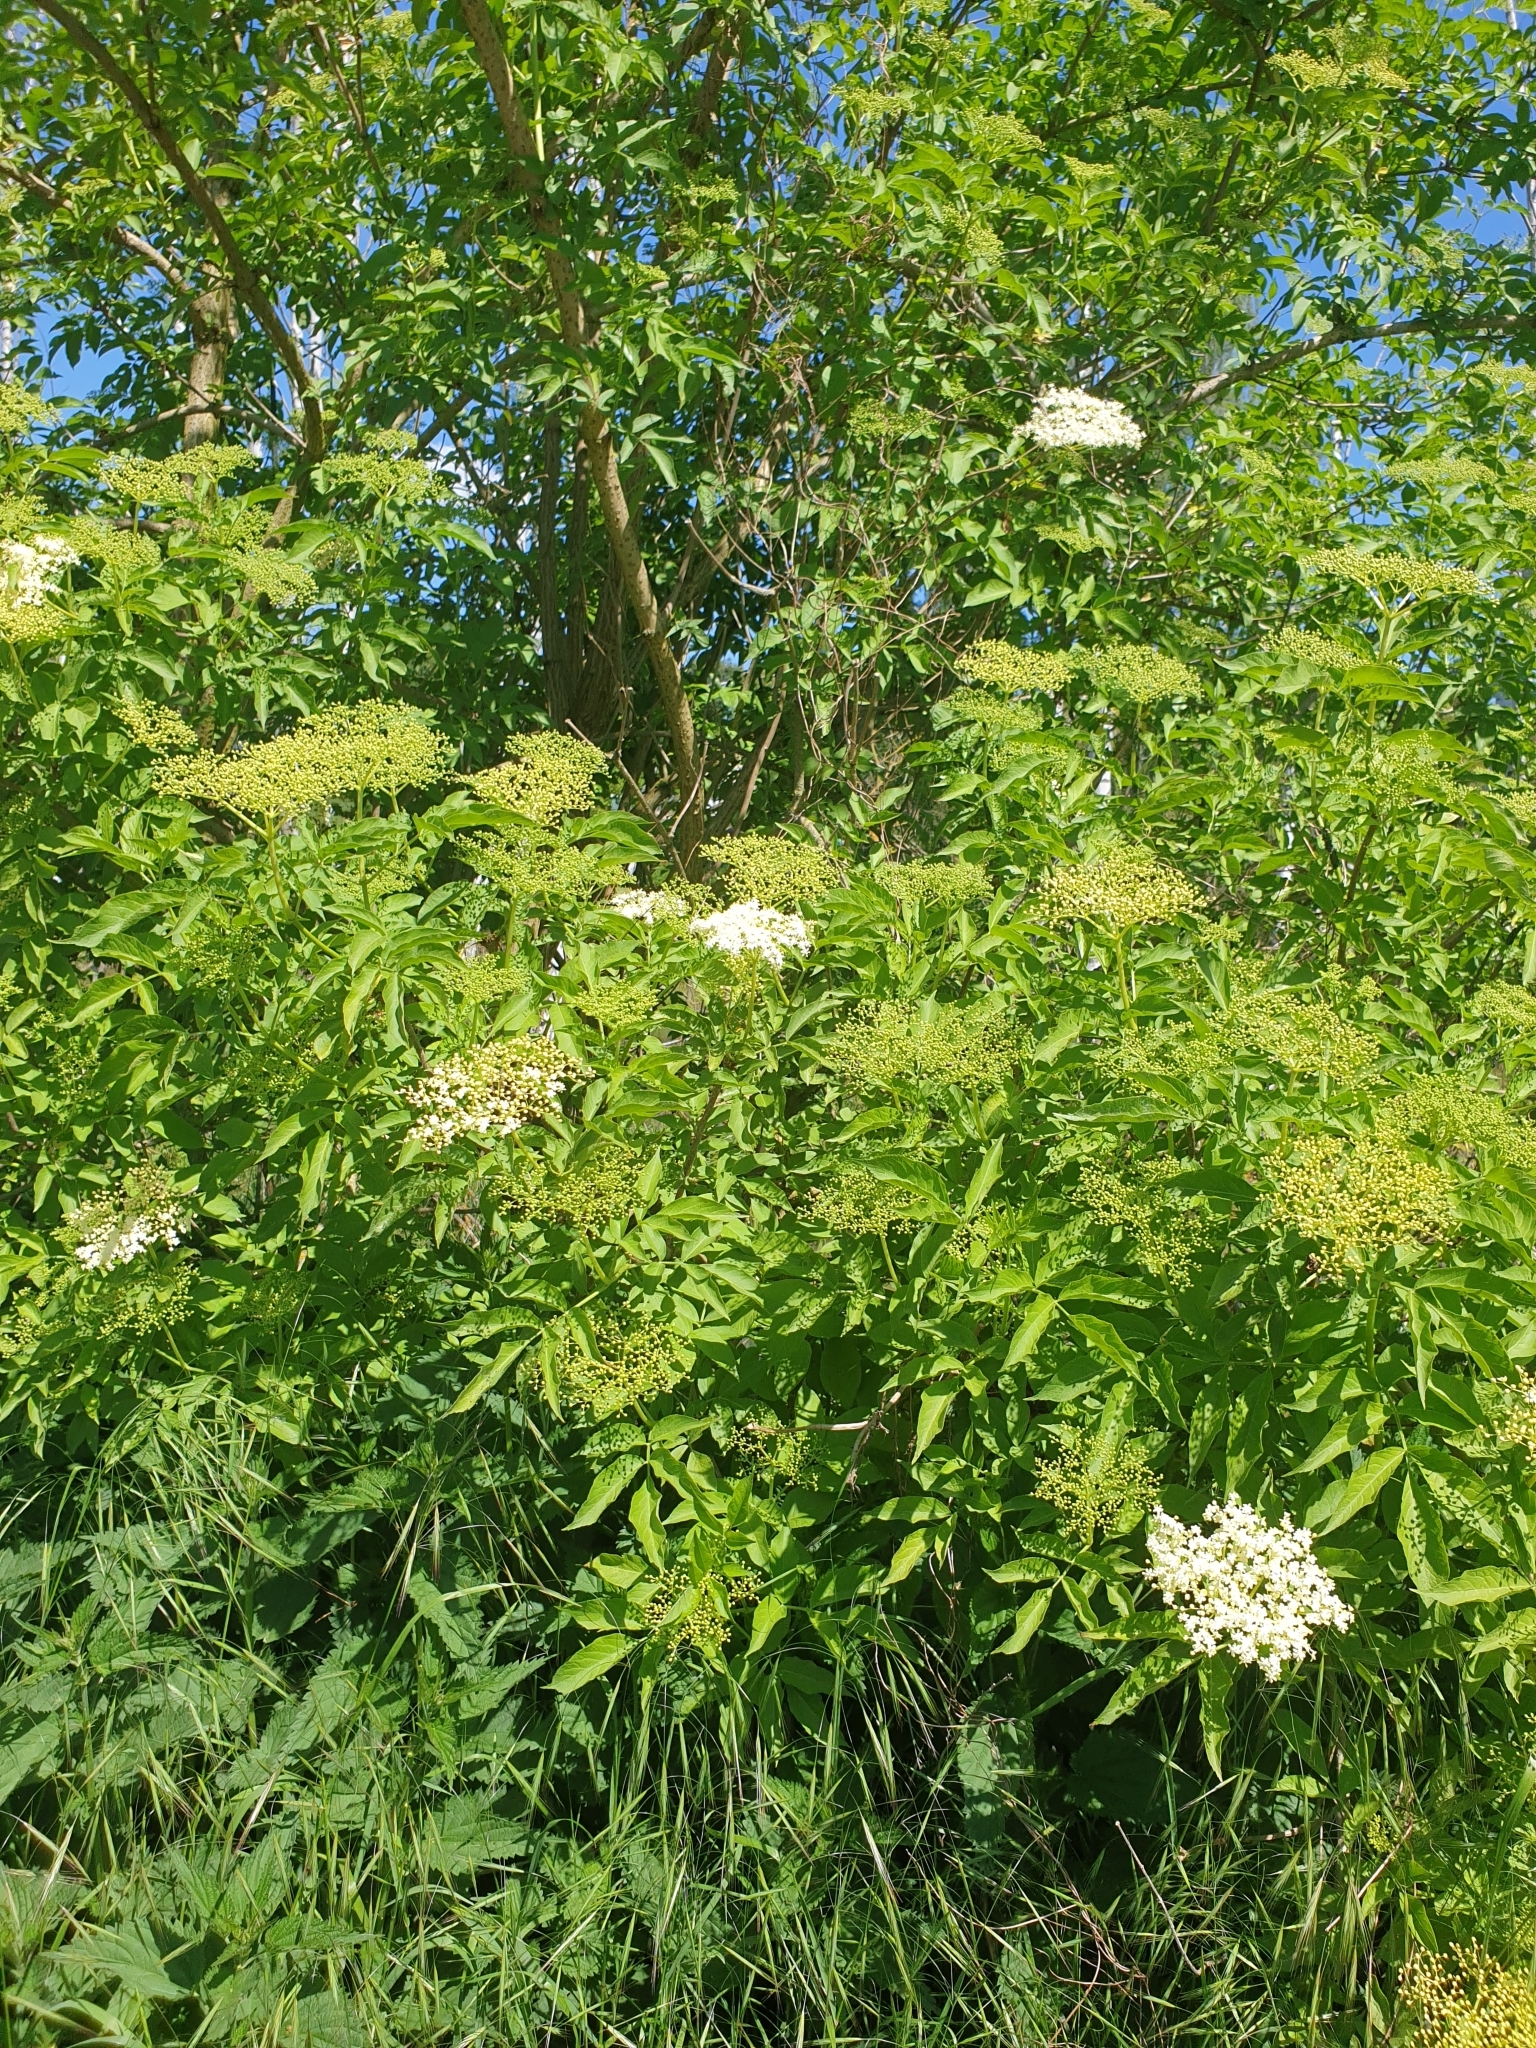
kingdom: Plantae
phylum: Tracheophyta
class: Magnoliopsida
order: Dipsacales
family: Viburnaceae
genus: Sambucus
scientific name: Sambucus nigra
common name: Elder
